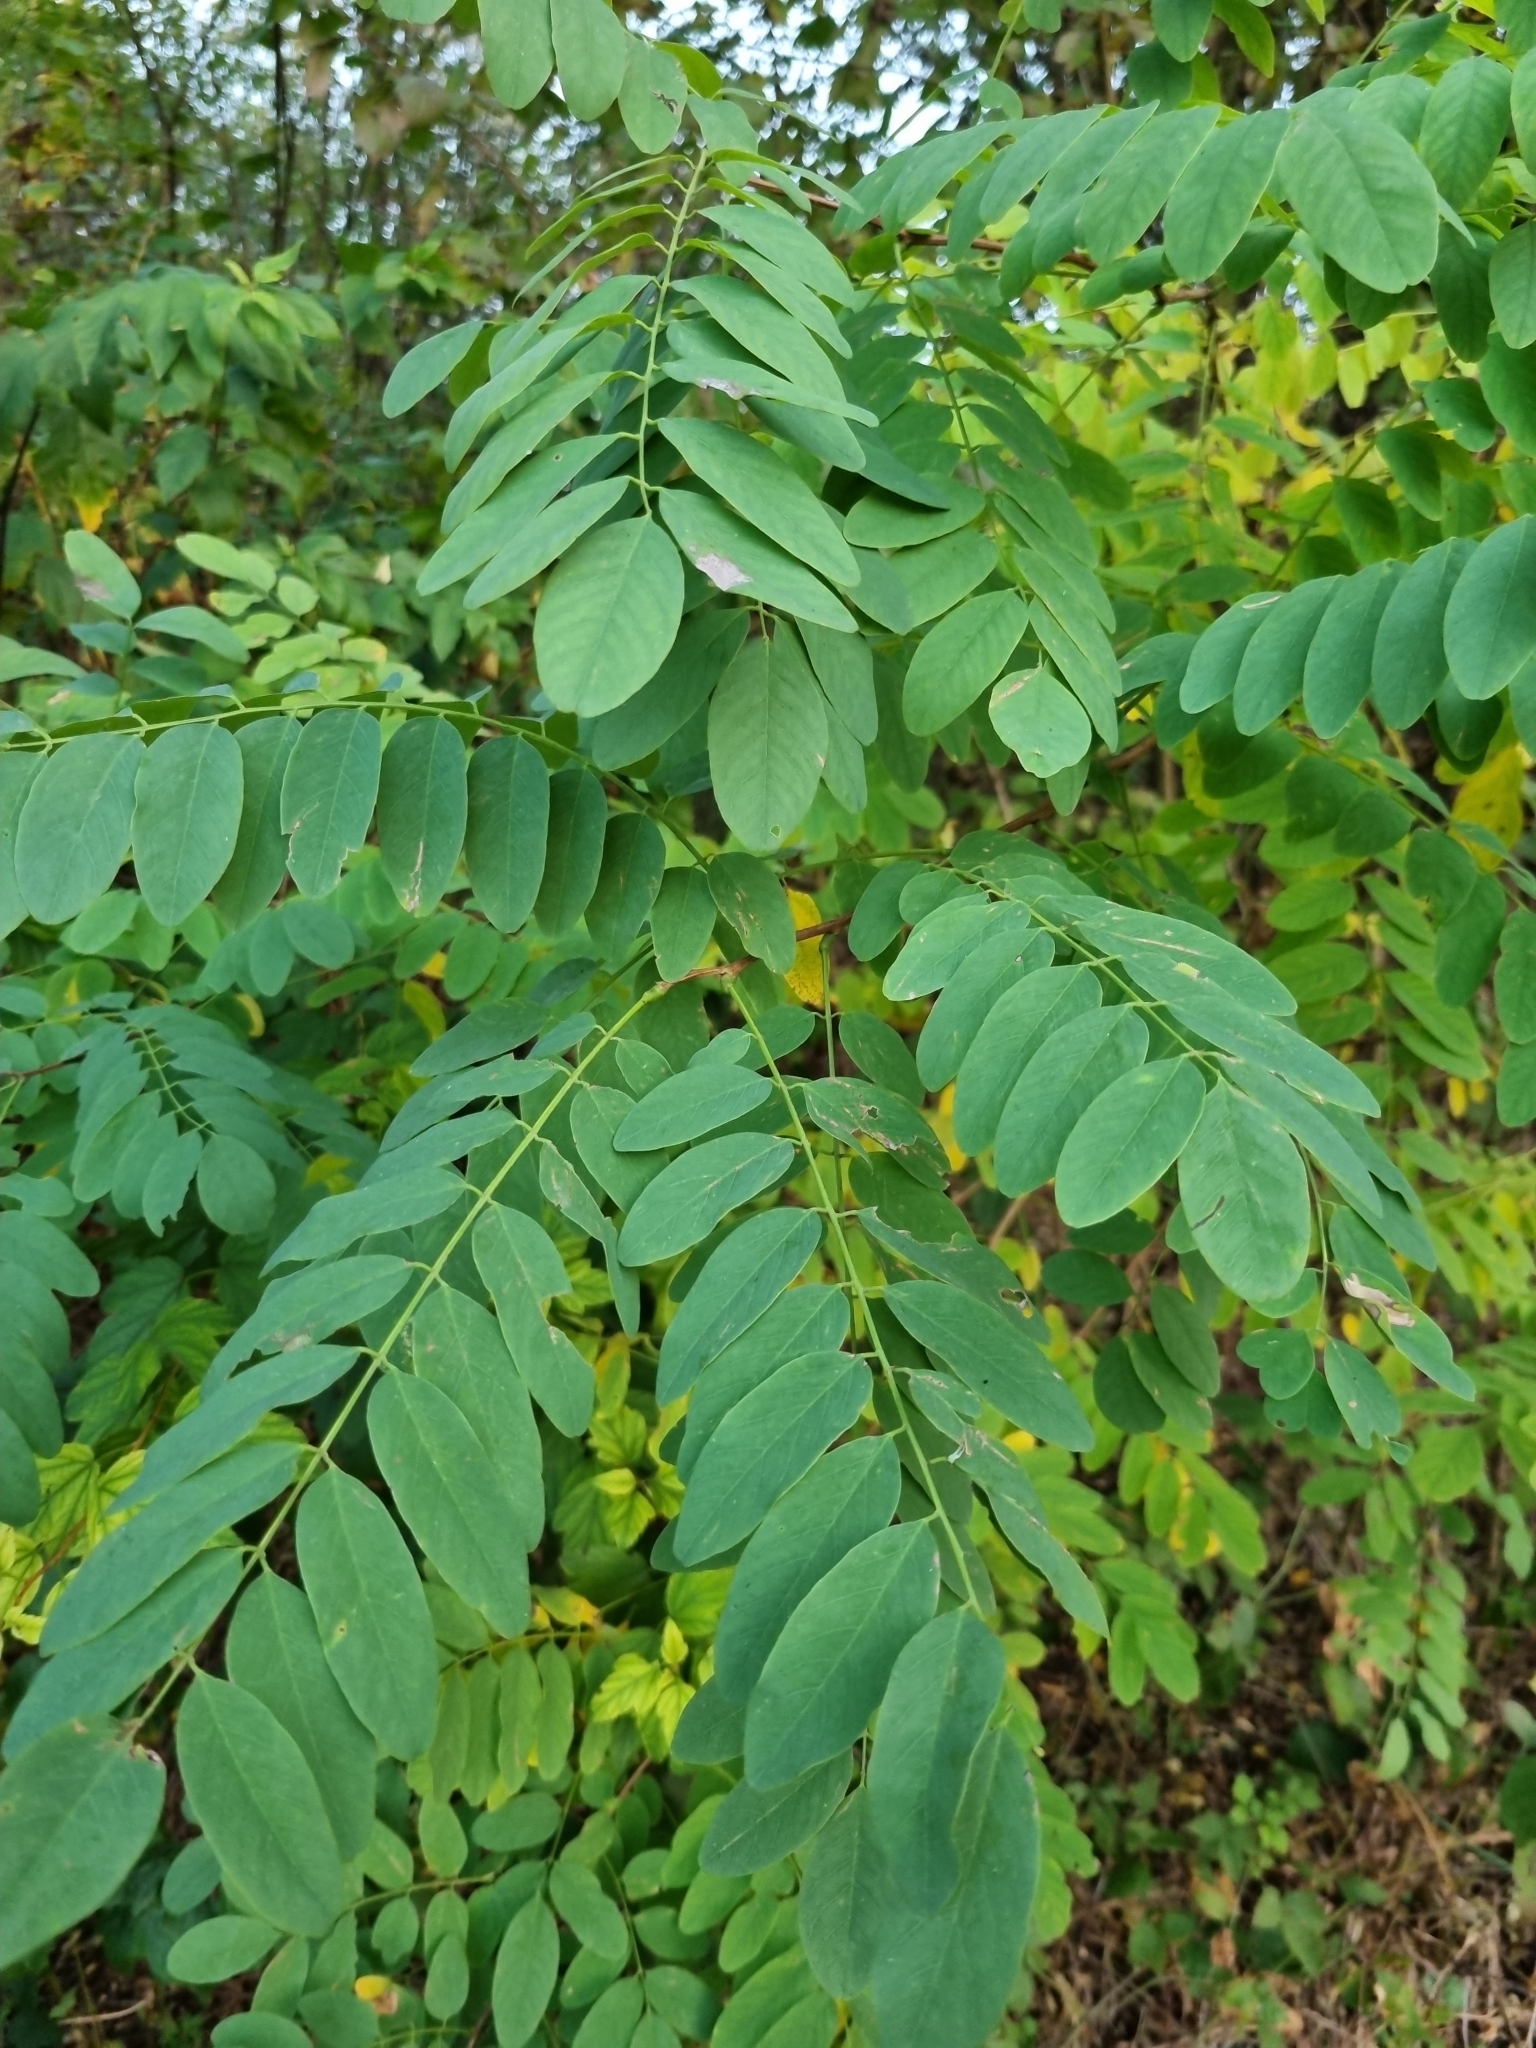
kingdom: Plantae
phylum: Tracheophyta
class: Magnoliopsida
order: Fabales
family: Fabaceae
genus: Robinia
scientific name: Robinia pseudoacacia
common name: Black locust
